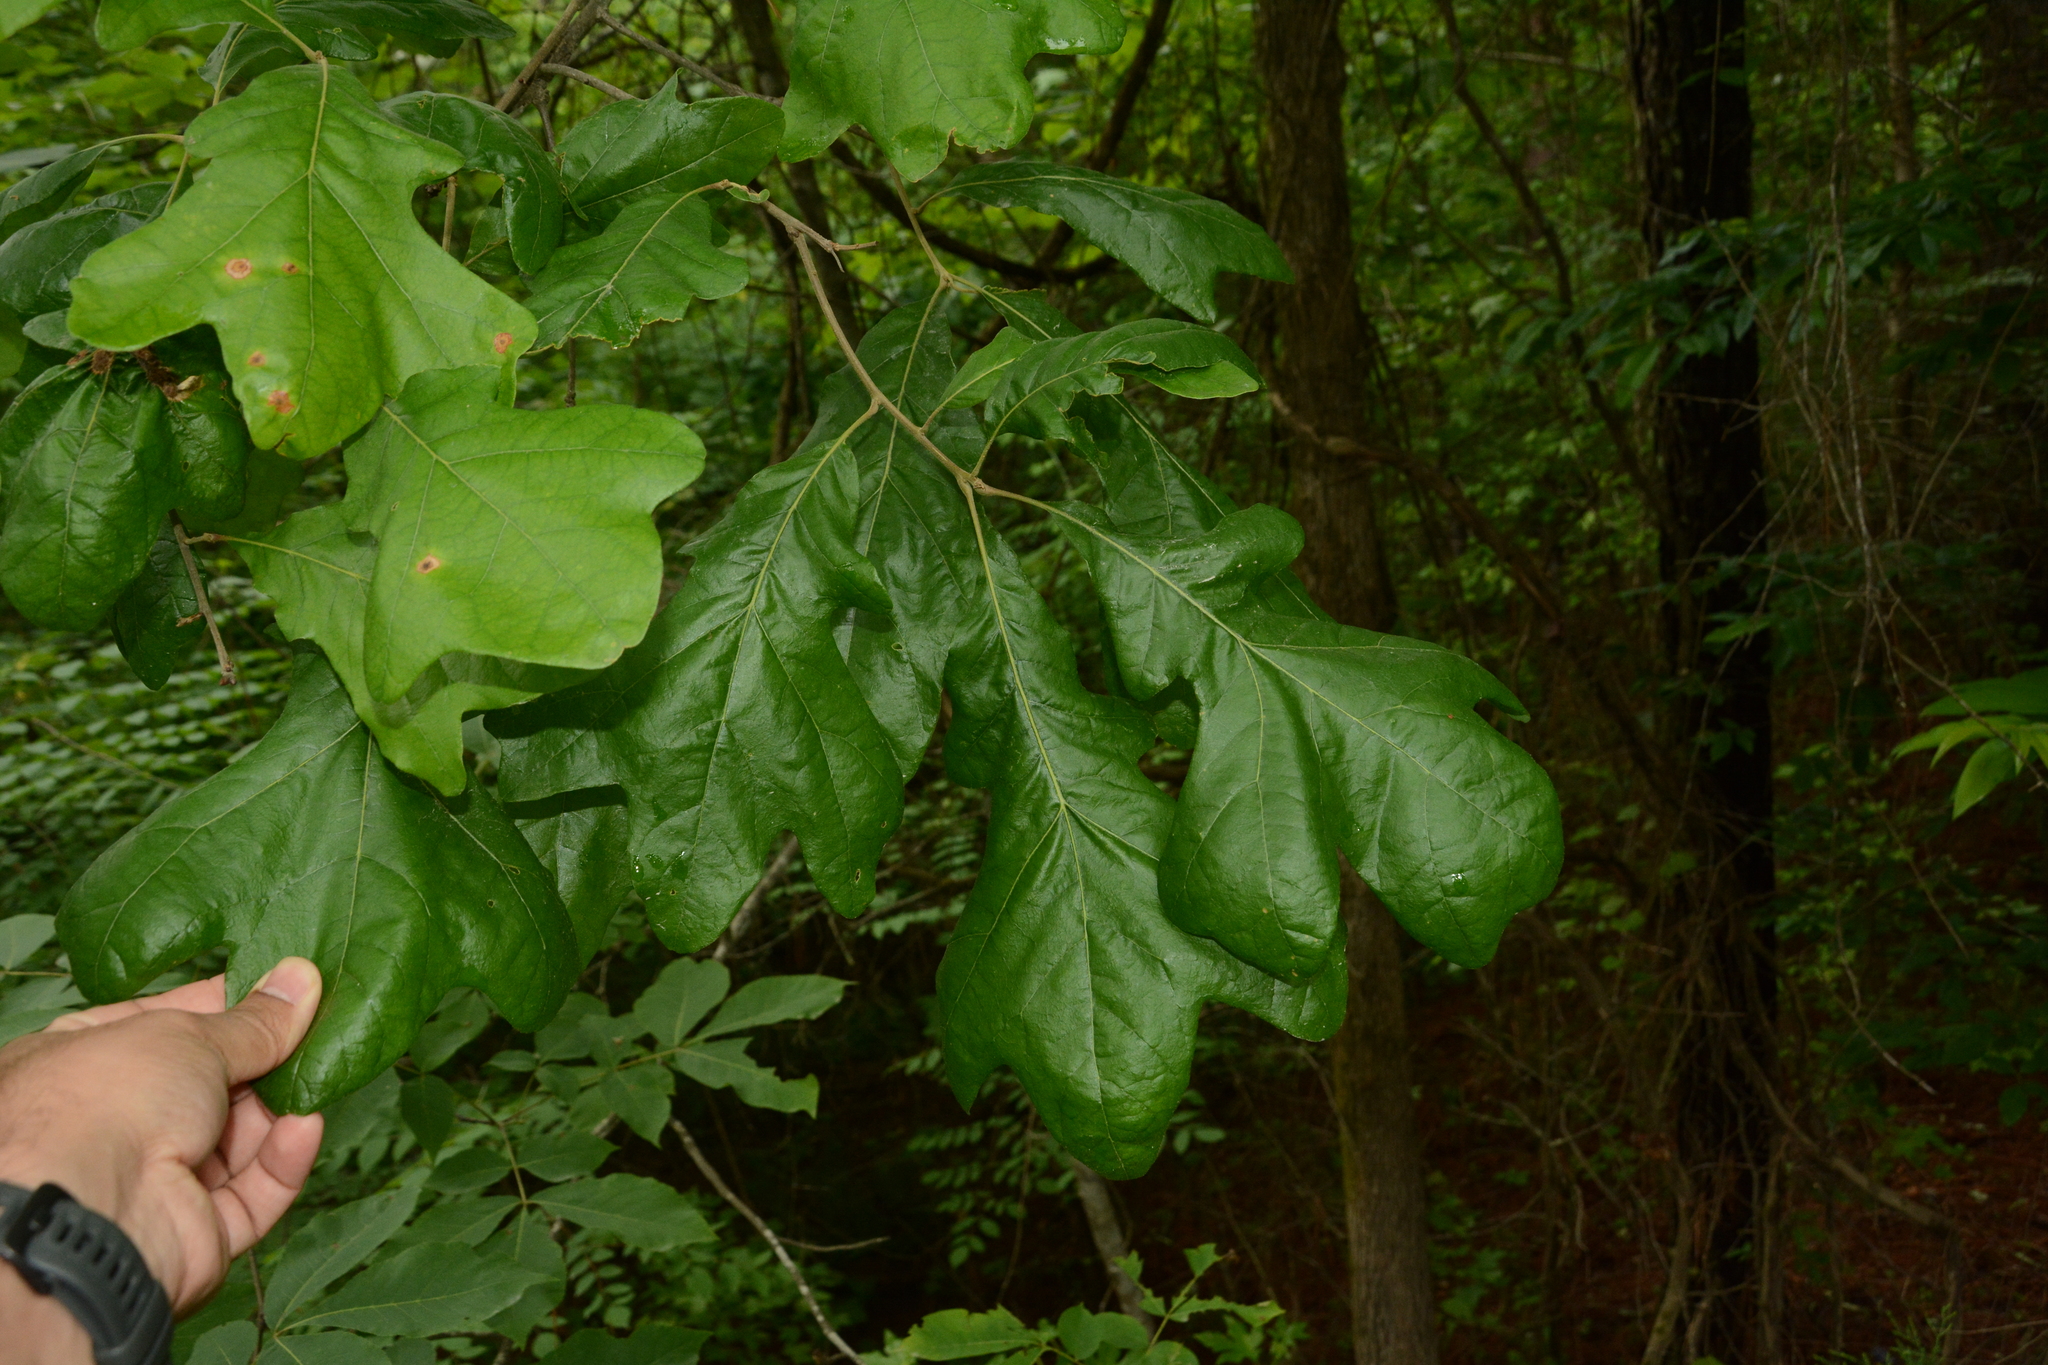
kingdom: Plantae
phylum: Tracheophyta
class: Magnoliopsida
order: Fagales
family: Fagaceae
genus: Quercus
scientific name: Quercus stellata
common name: Post oak
